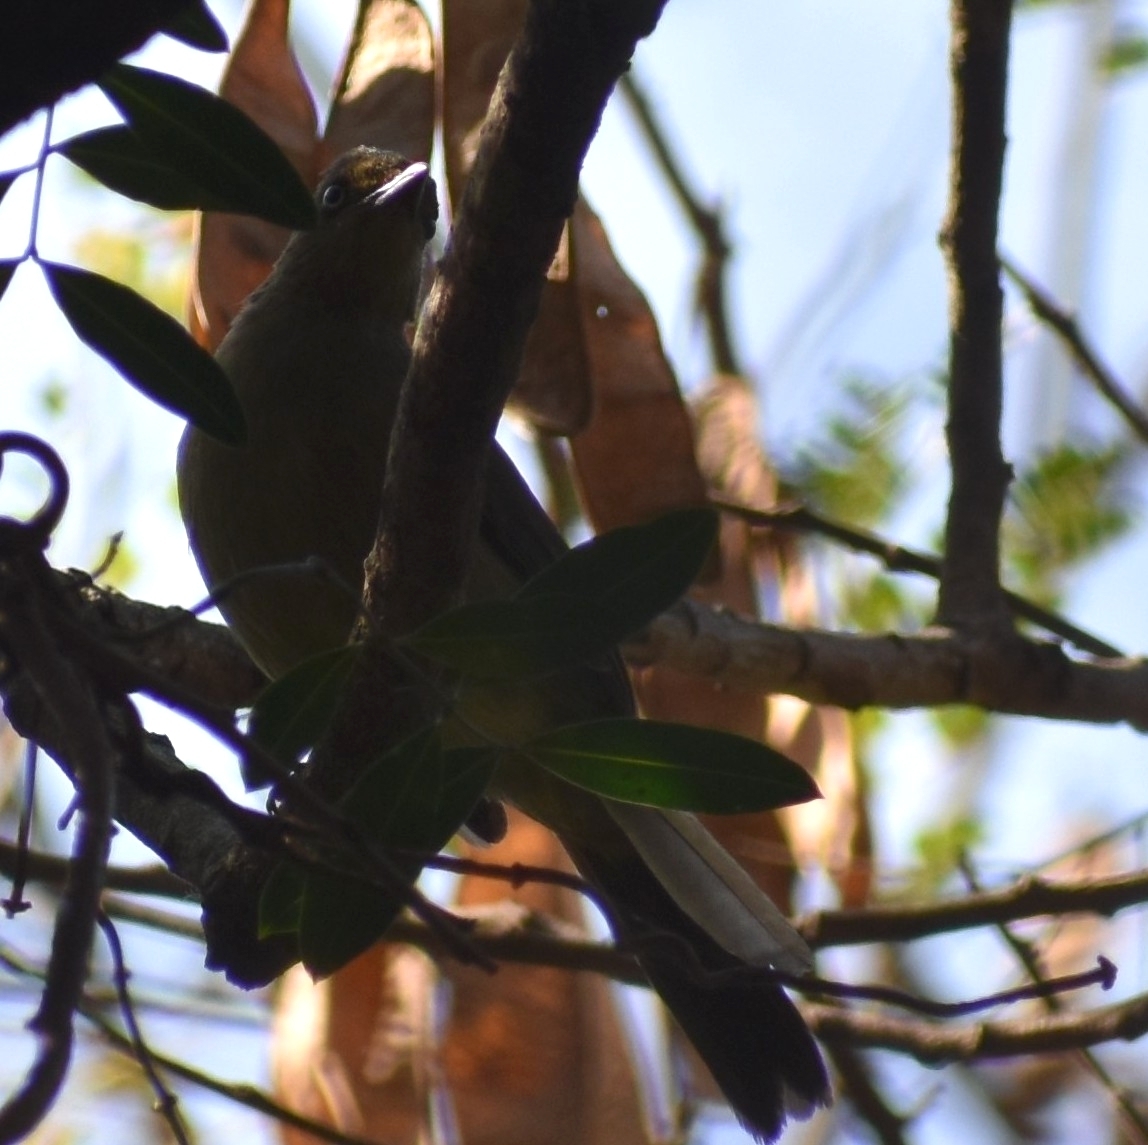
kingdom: Animalia
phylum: Chordata
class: Aves
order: Passeriformes
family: Pycnonotidae
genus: Andropadus
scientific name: Andropadus importunus
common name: Sombre greenbul
